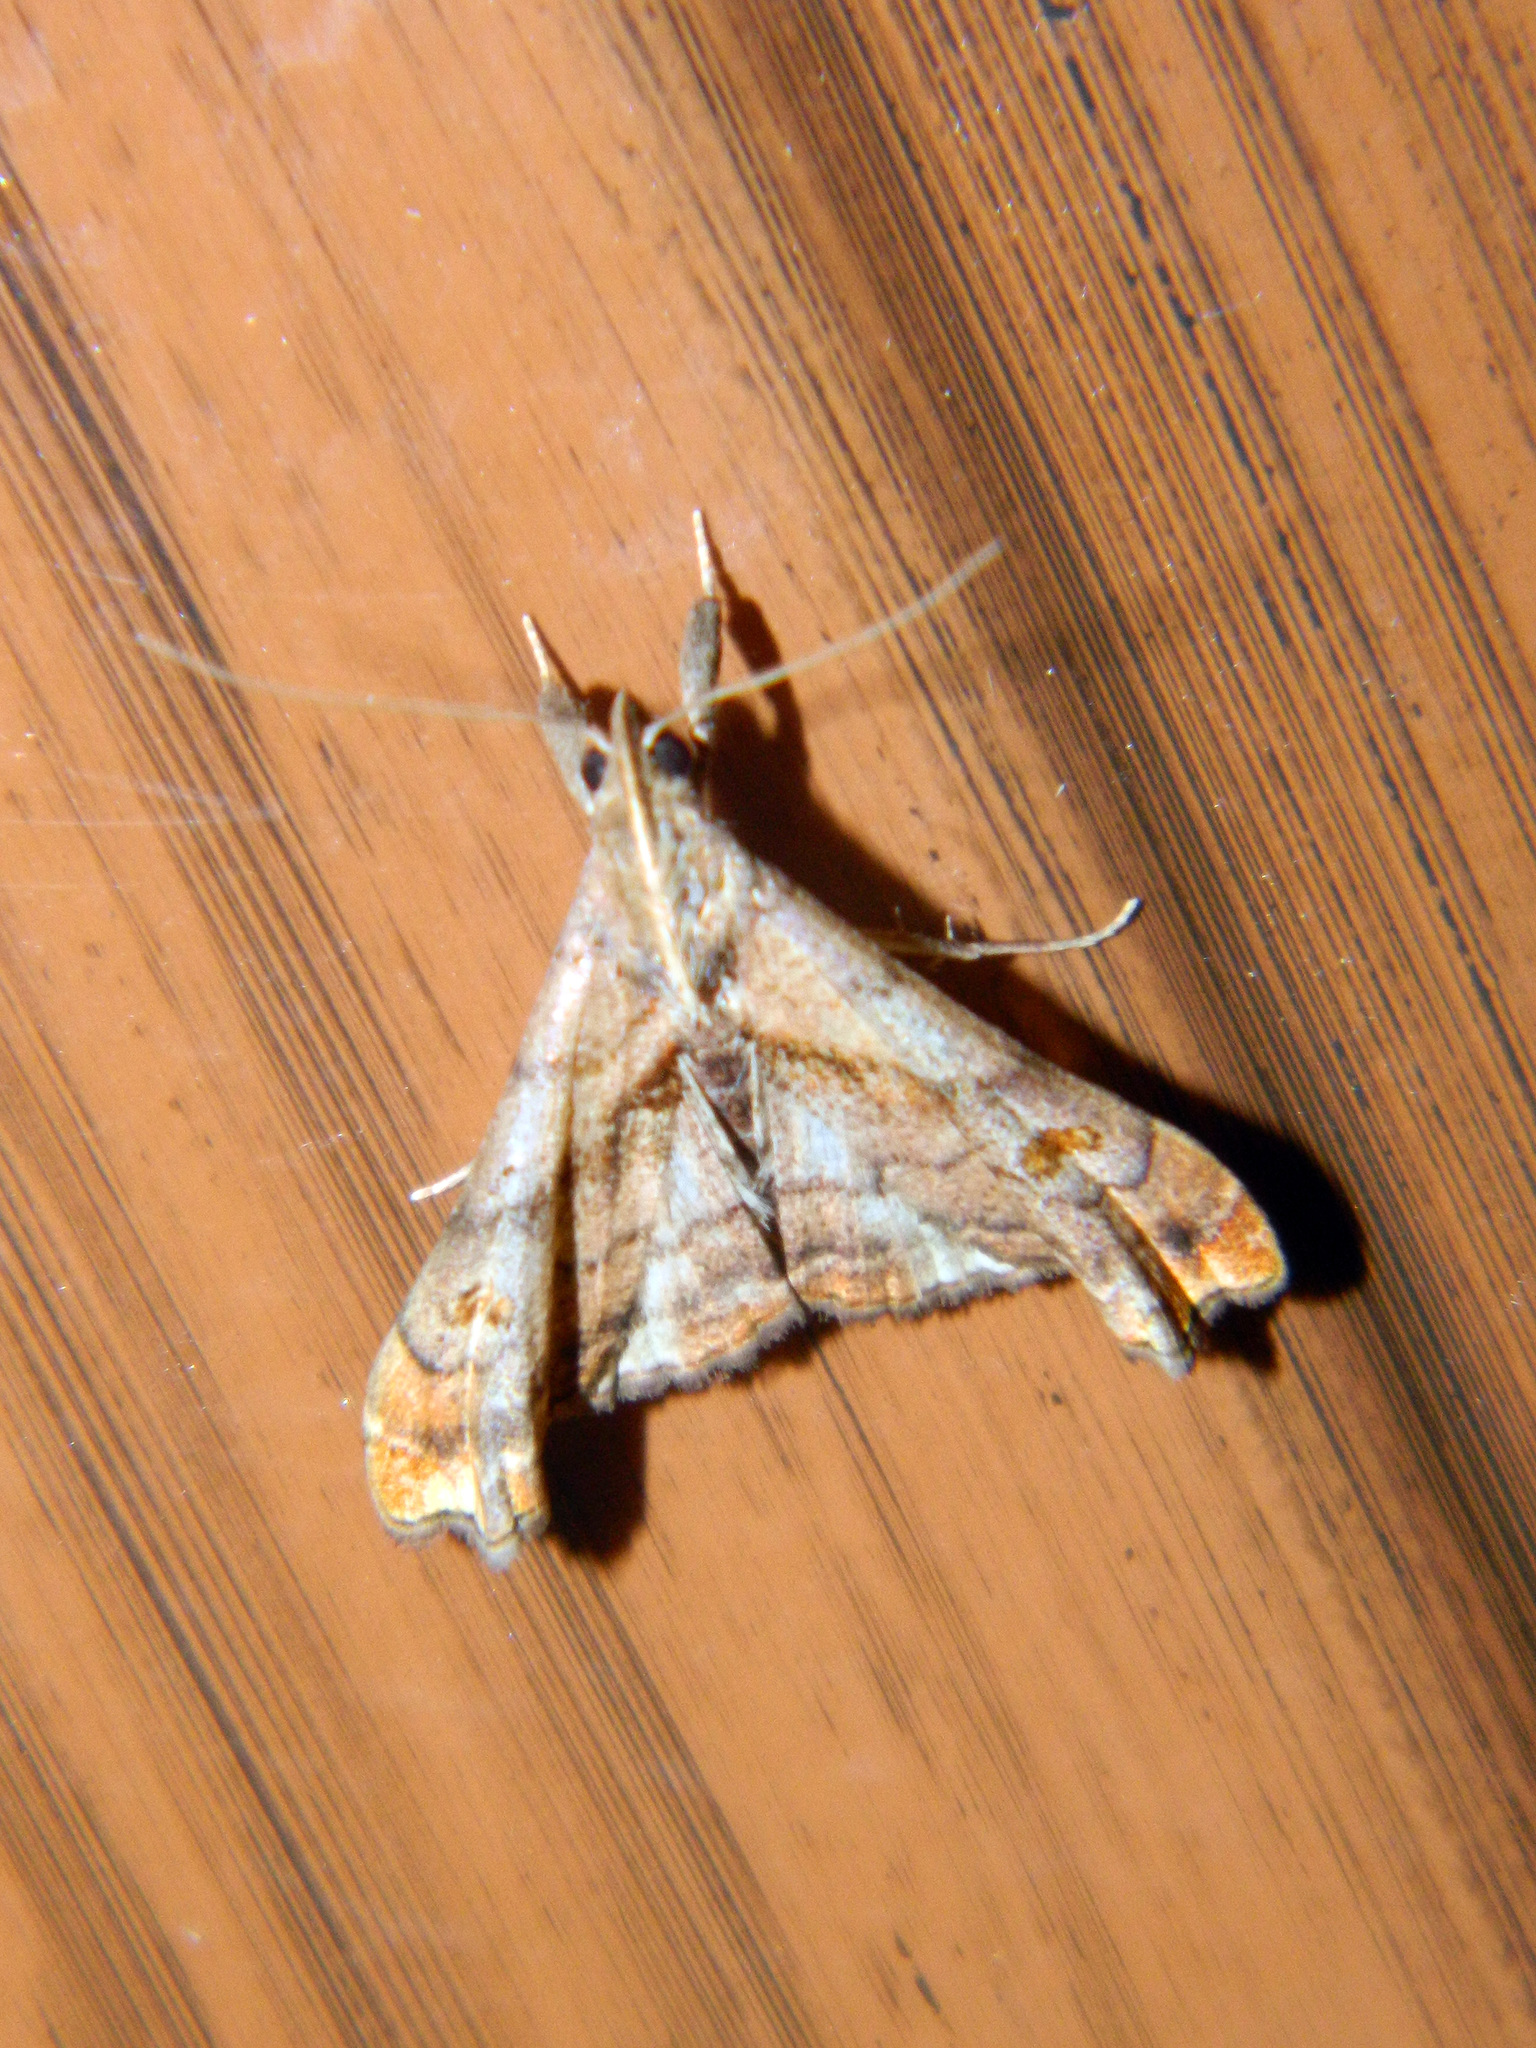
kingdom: Animalia
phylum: Arthropoda
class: Insecta
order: Lepidoptera
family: Erebidae
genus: Palthis
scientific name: Palthis angulalis
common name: Dark-spotted palthis moth
